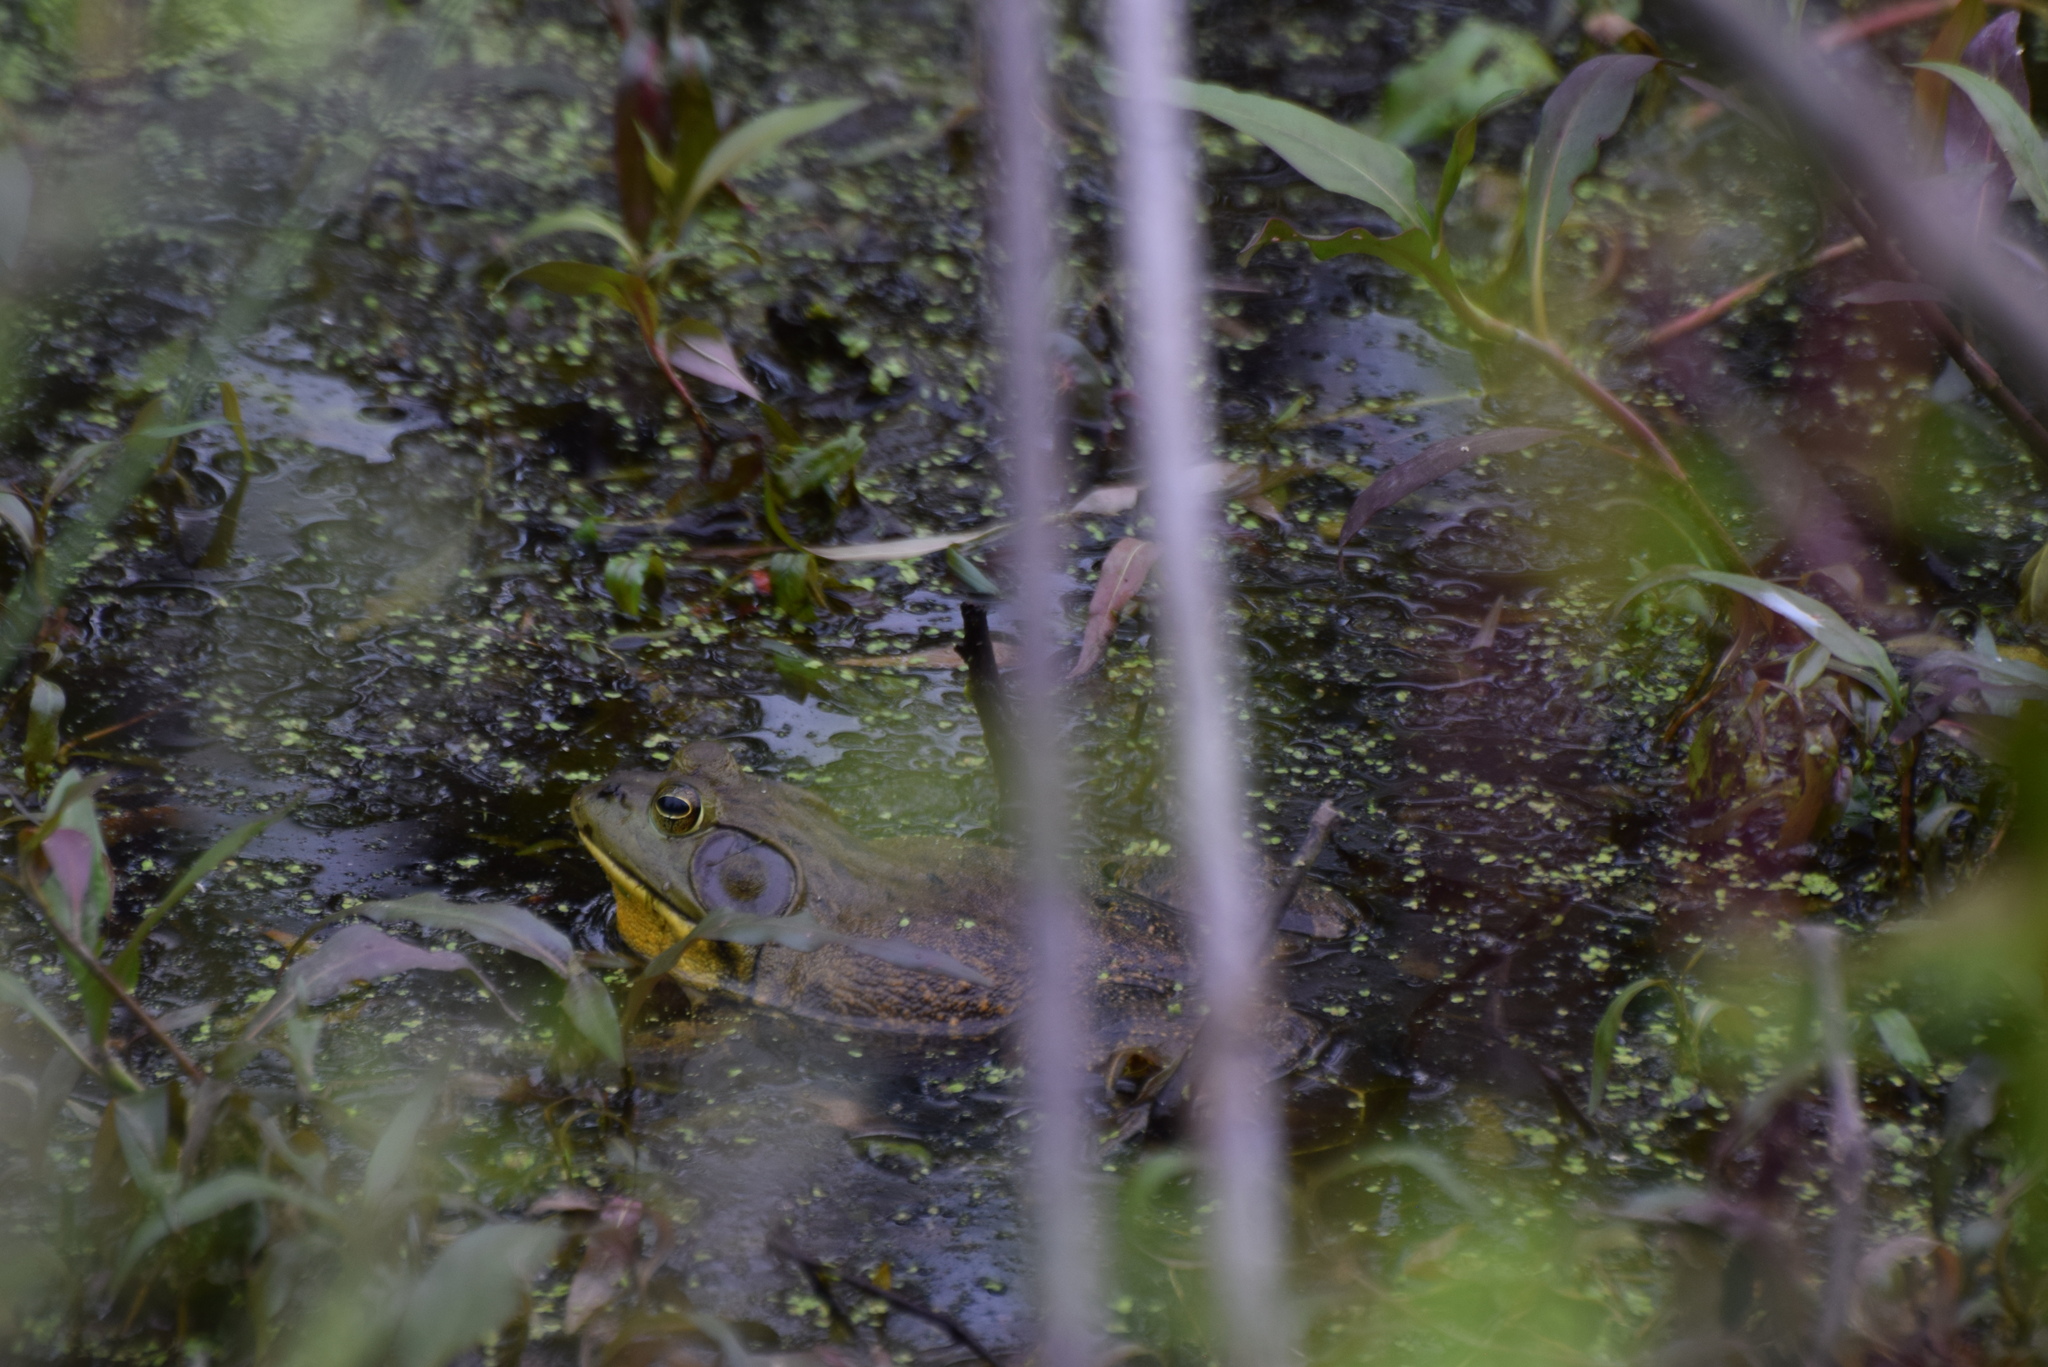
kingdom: Animalia
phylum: Chordata
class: Amphibia
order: Anura
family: Ranidae
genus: Lithobates
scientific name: Lithobates catesbeianus
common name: American bullfrog
